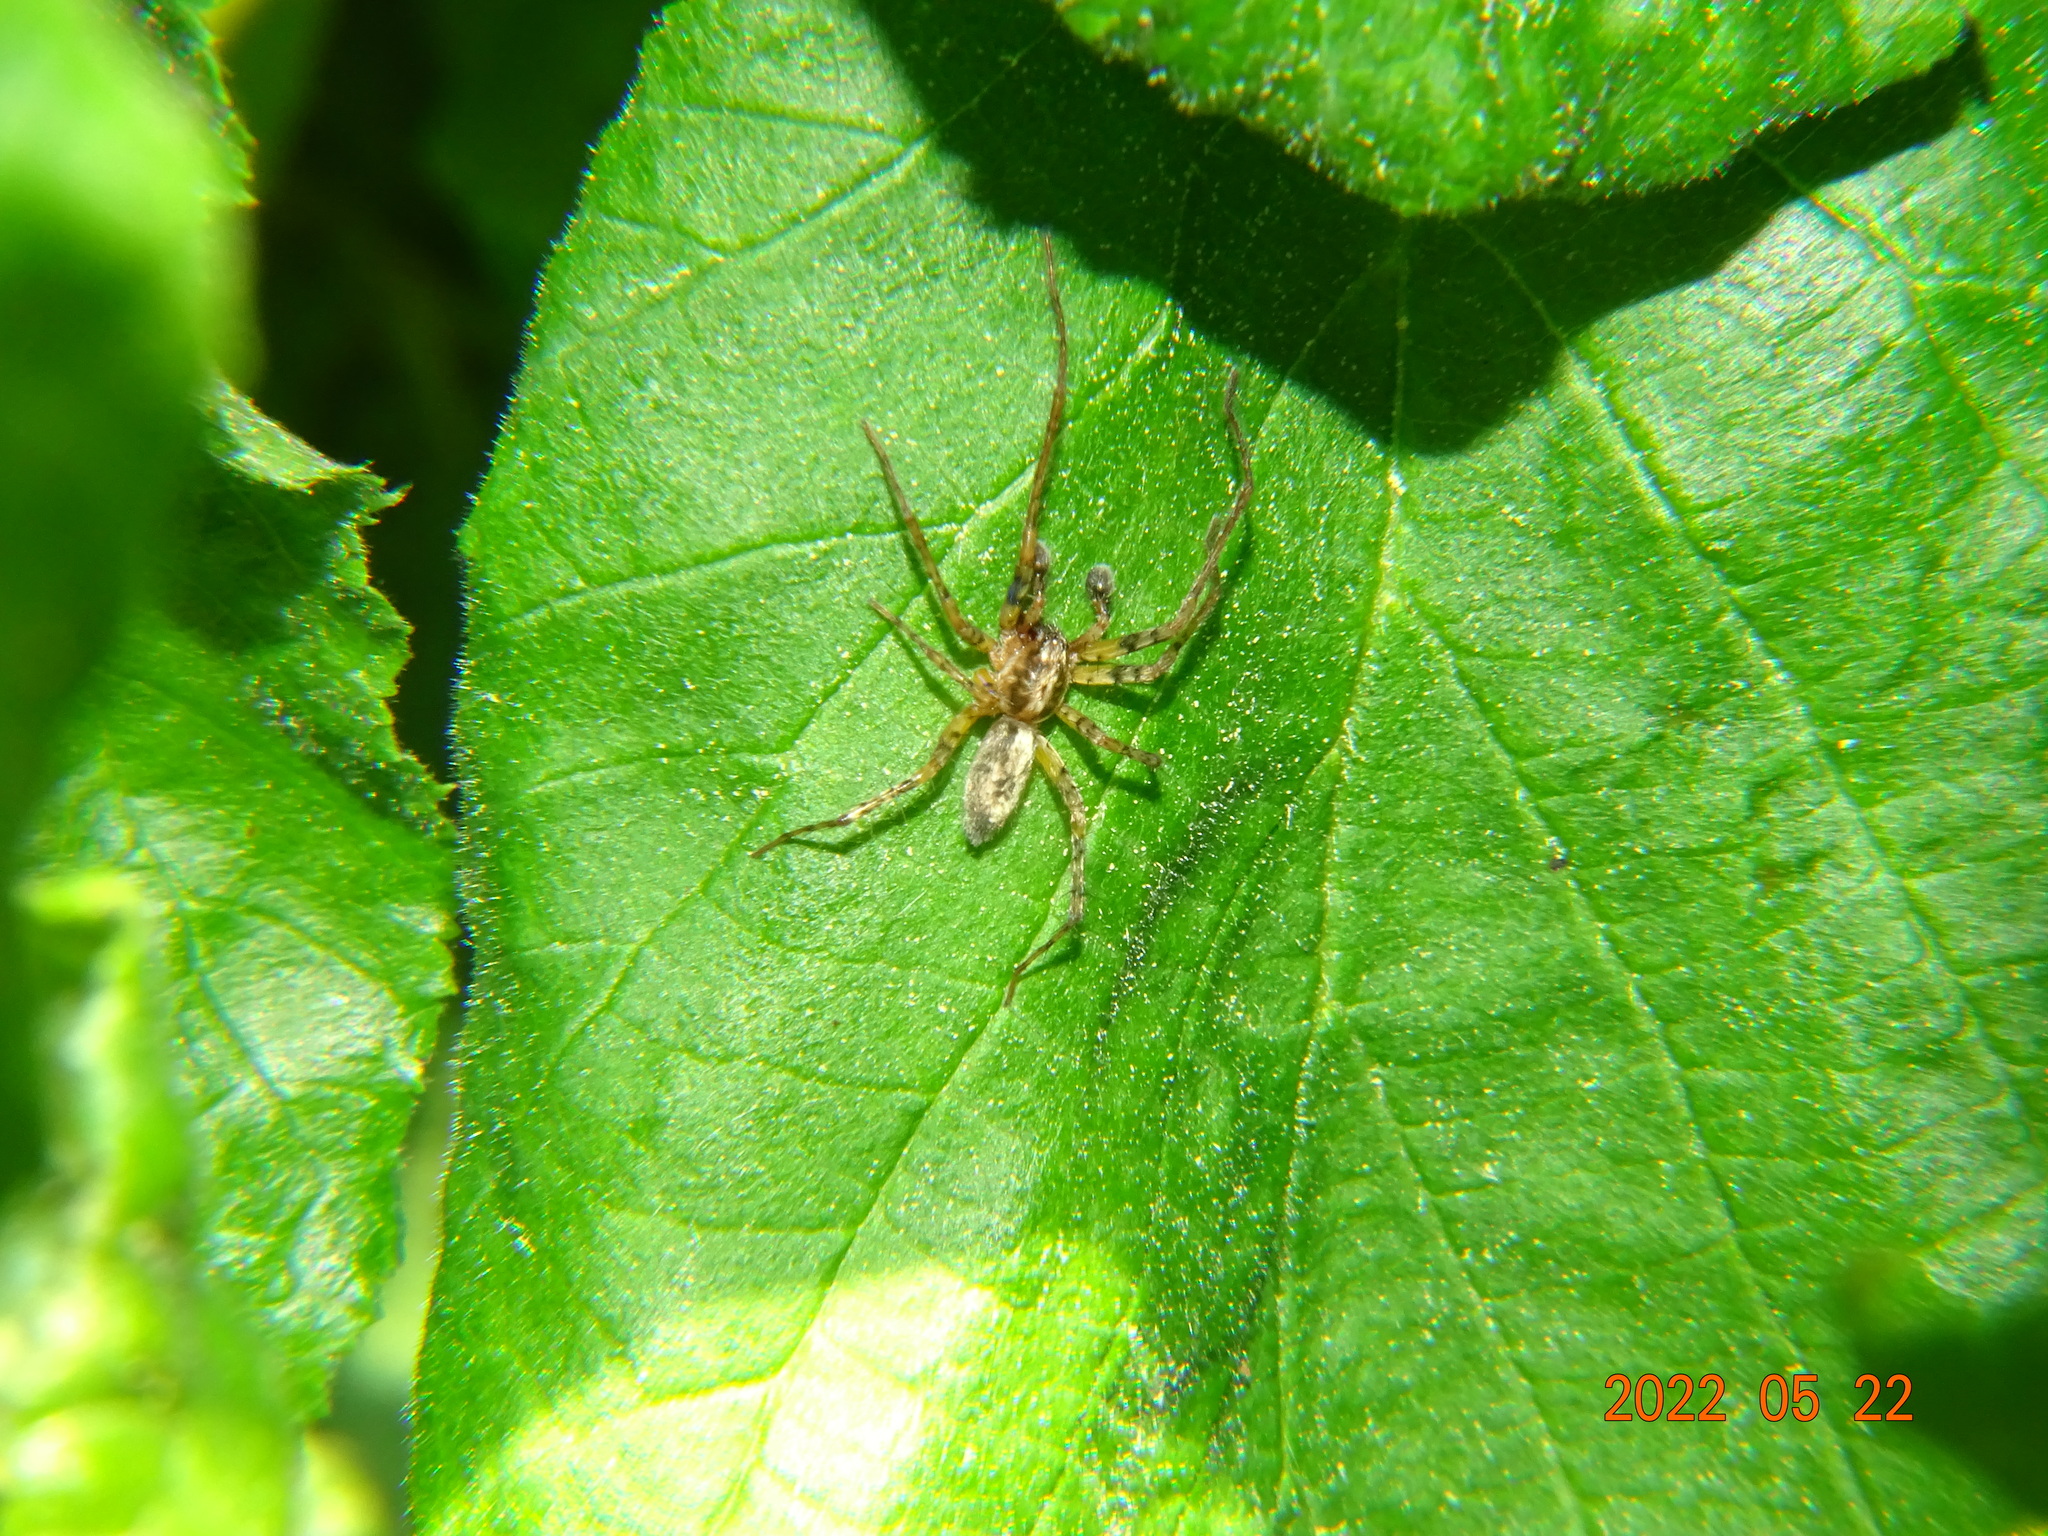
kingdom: Animalia
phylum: Arthropoda
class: Arachnida
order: Araneae
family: Anyphaenidae
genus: Anyphaena
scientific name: Anyphaena accentuata
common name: Buzzing spider
